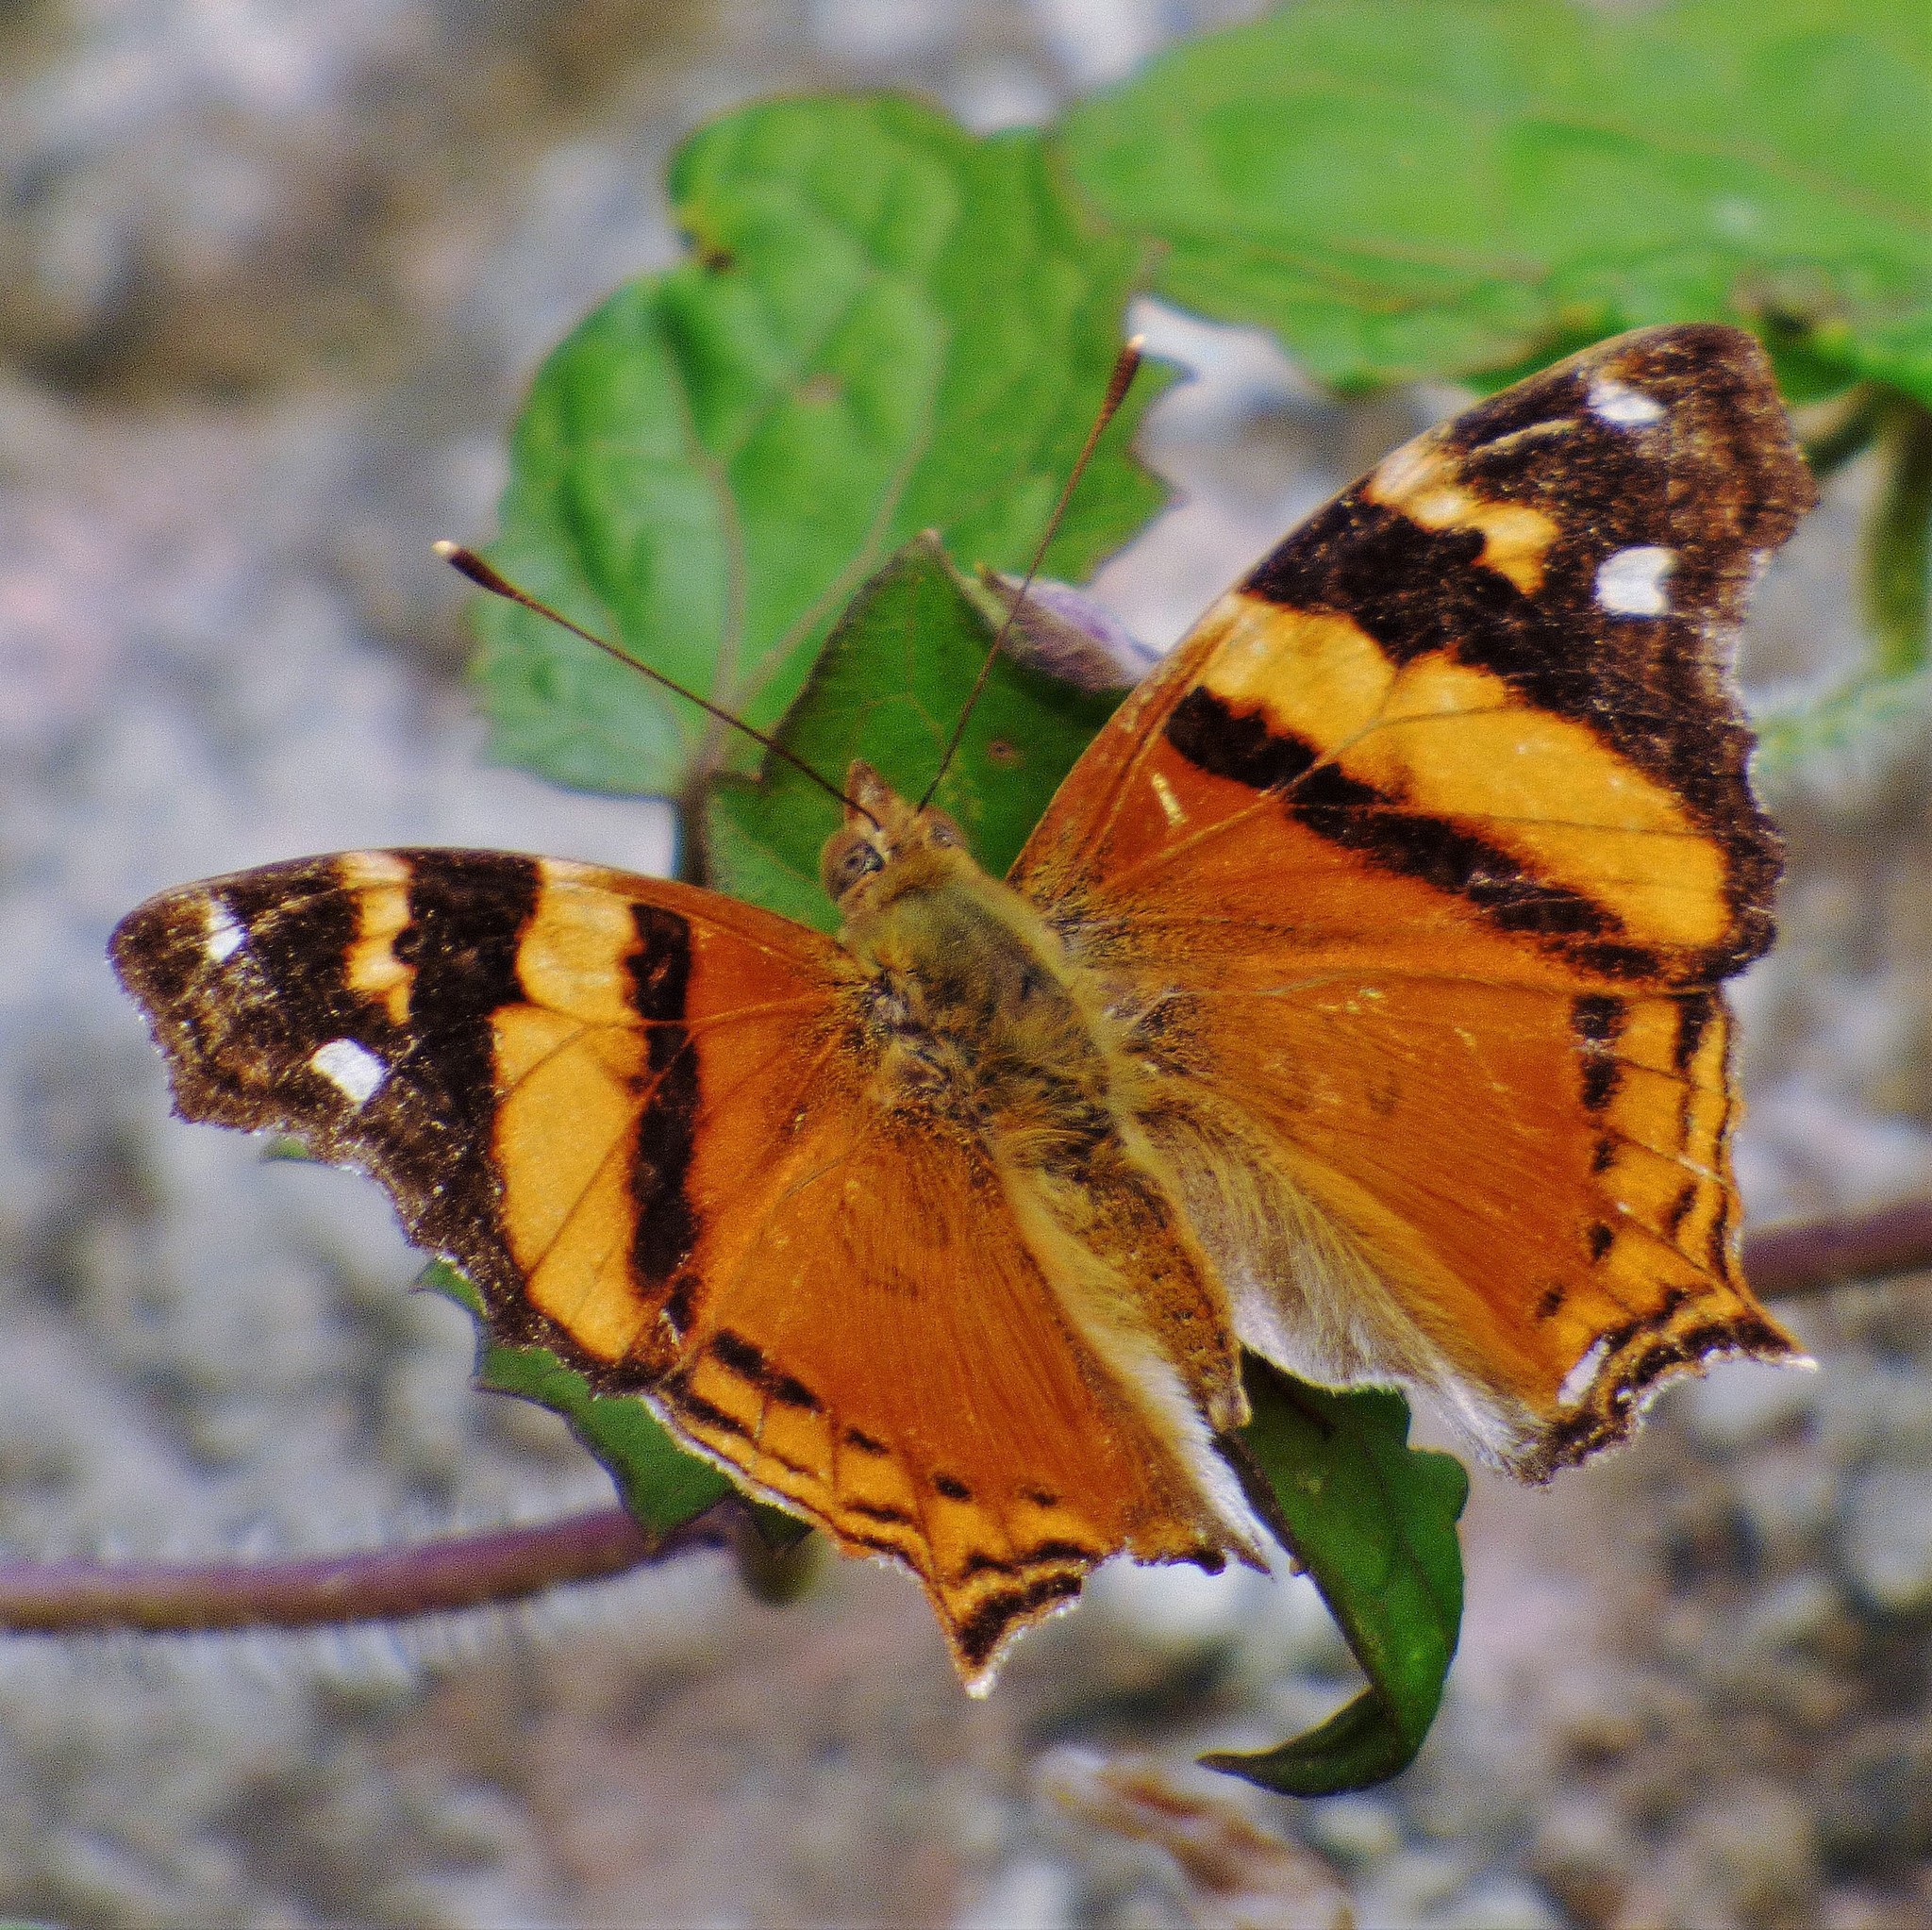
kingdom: Animalia
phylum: Arthropoda
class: Insecta
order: Lepidoptera
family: Nymphalidae
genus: Hypanartia
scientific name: Hypanartia bella
